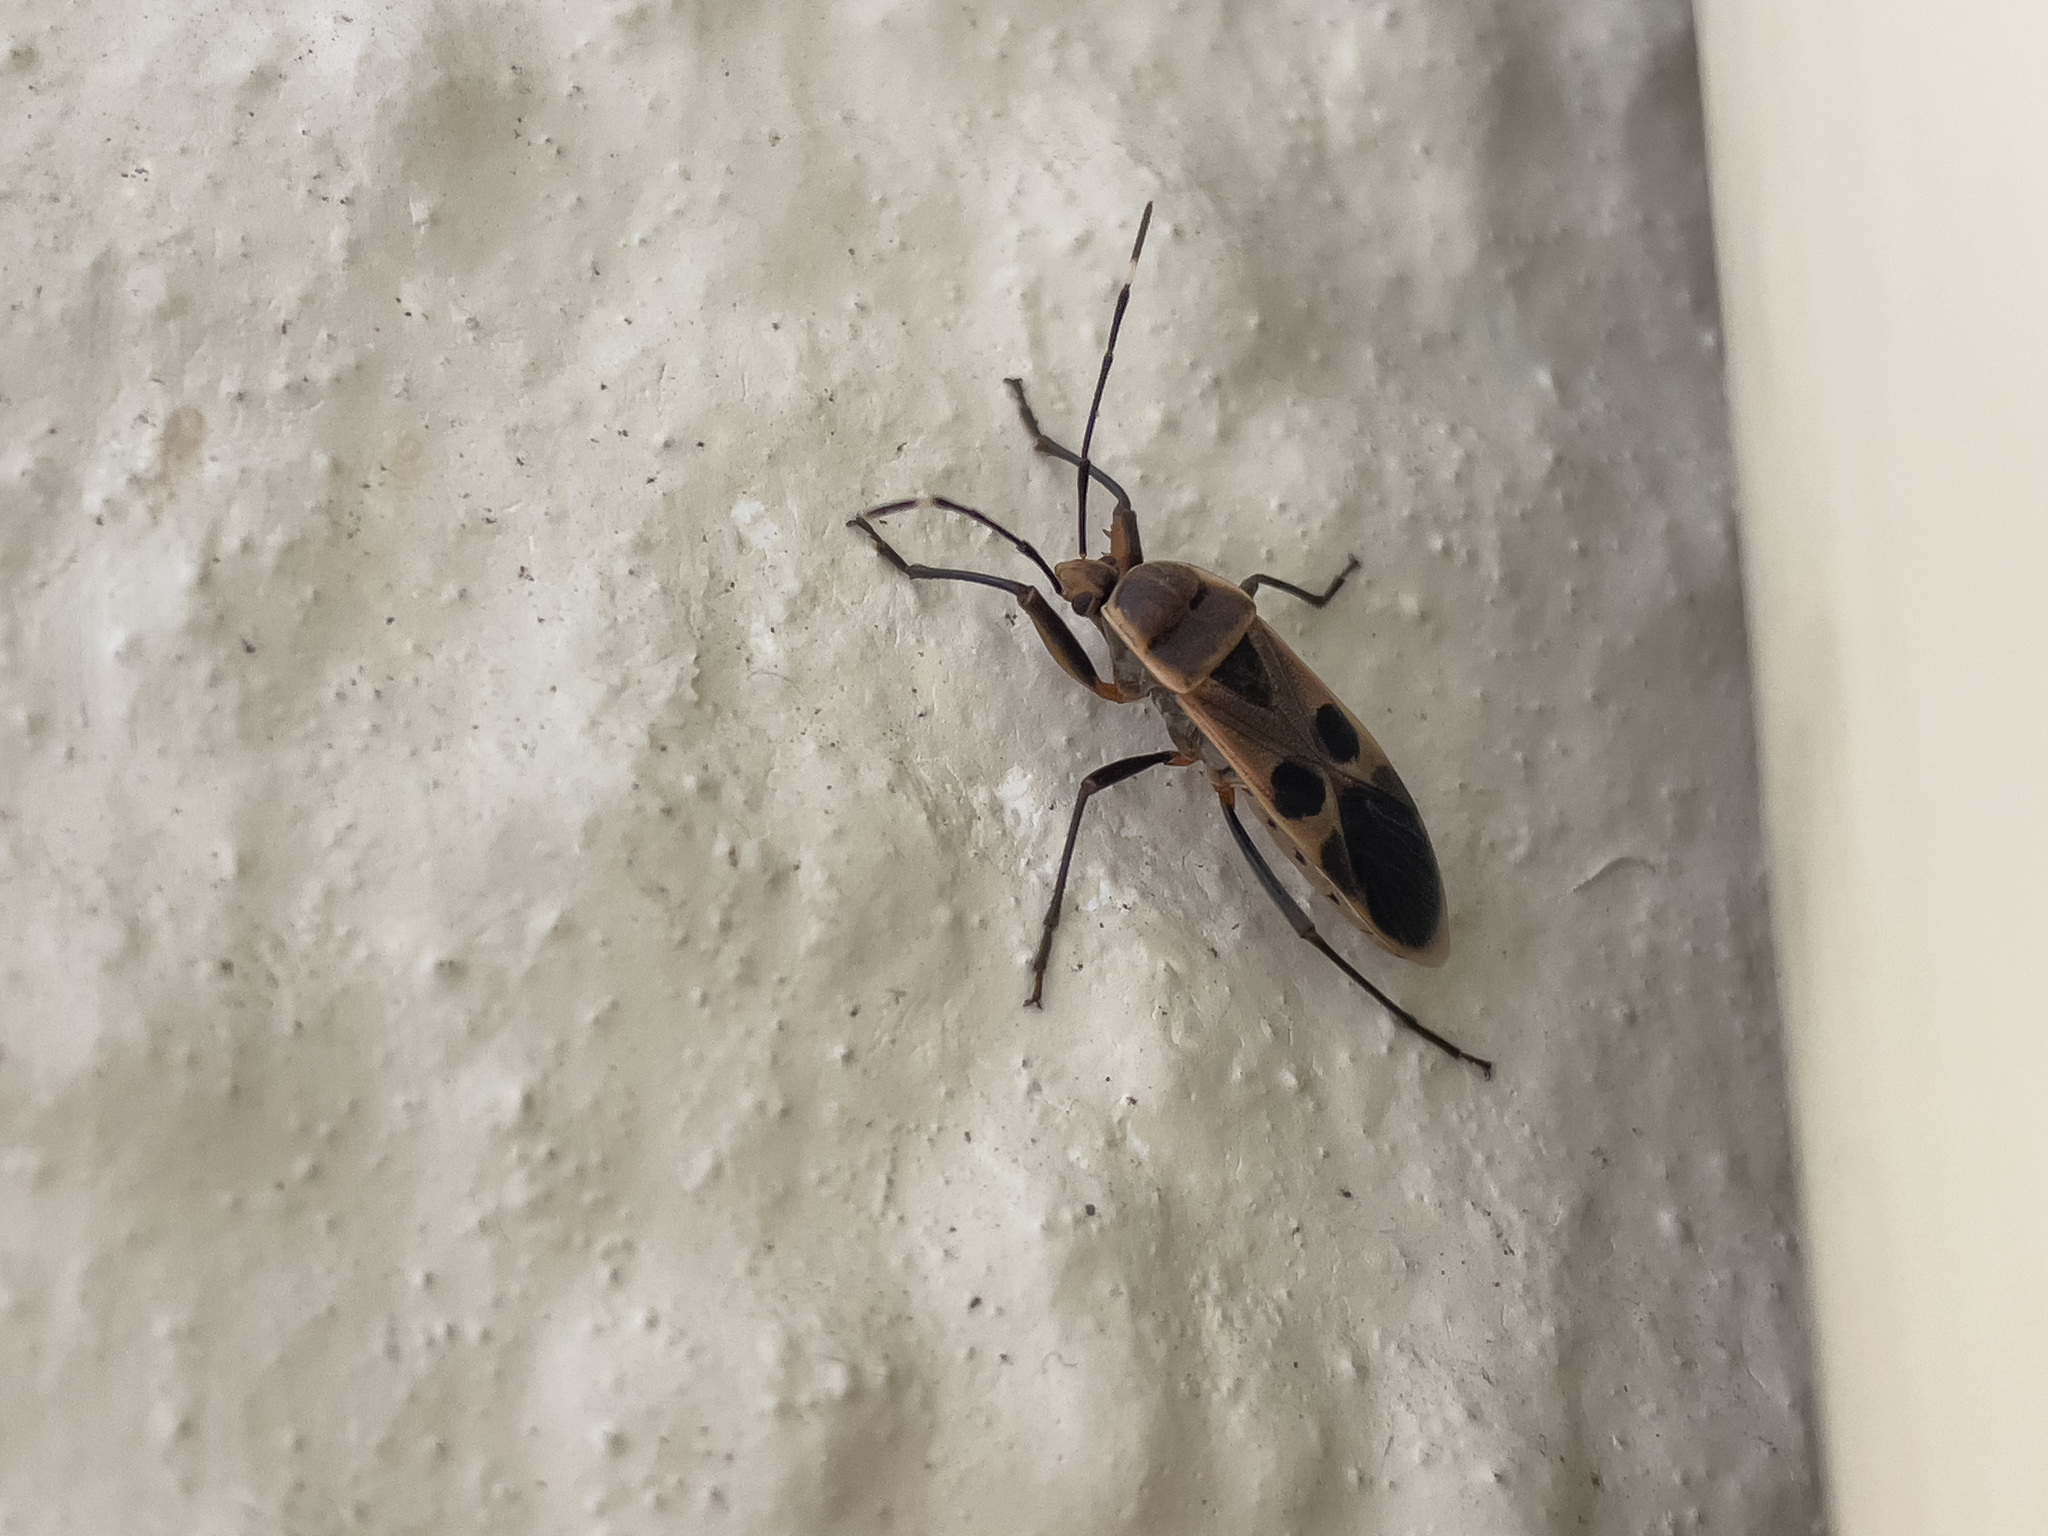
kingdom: Animalia
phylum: Arthropoda
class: Insecta
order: Hemiptera
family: Largidae
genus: Physopelta
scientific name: Physopelta gutta
